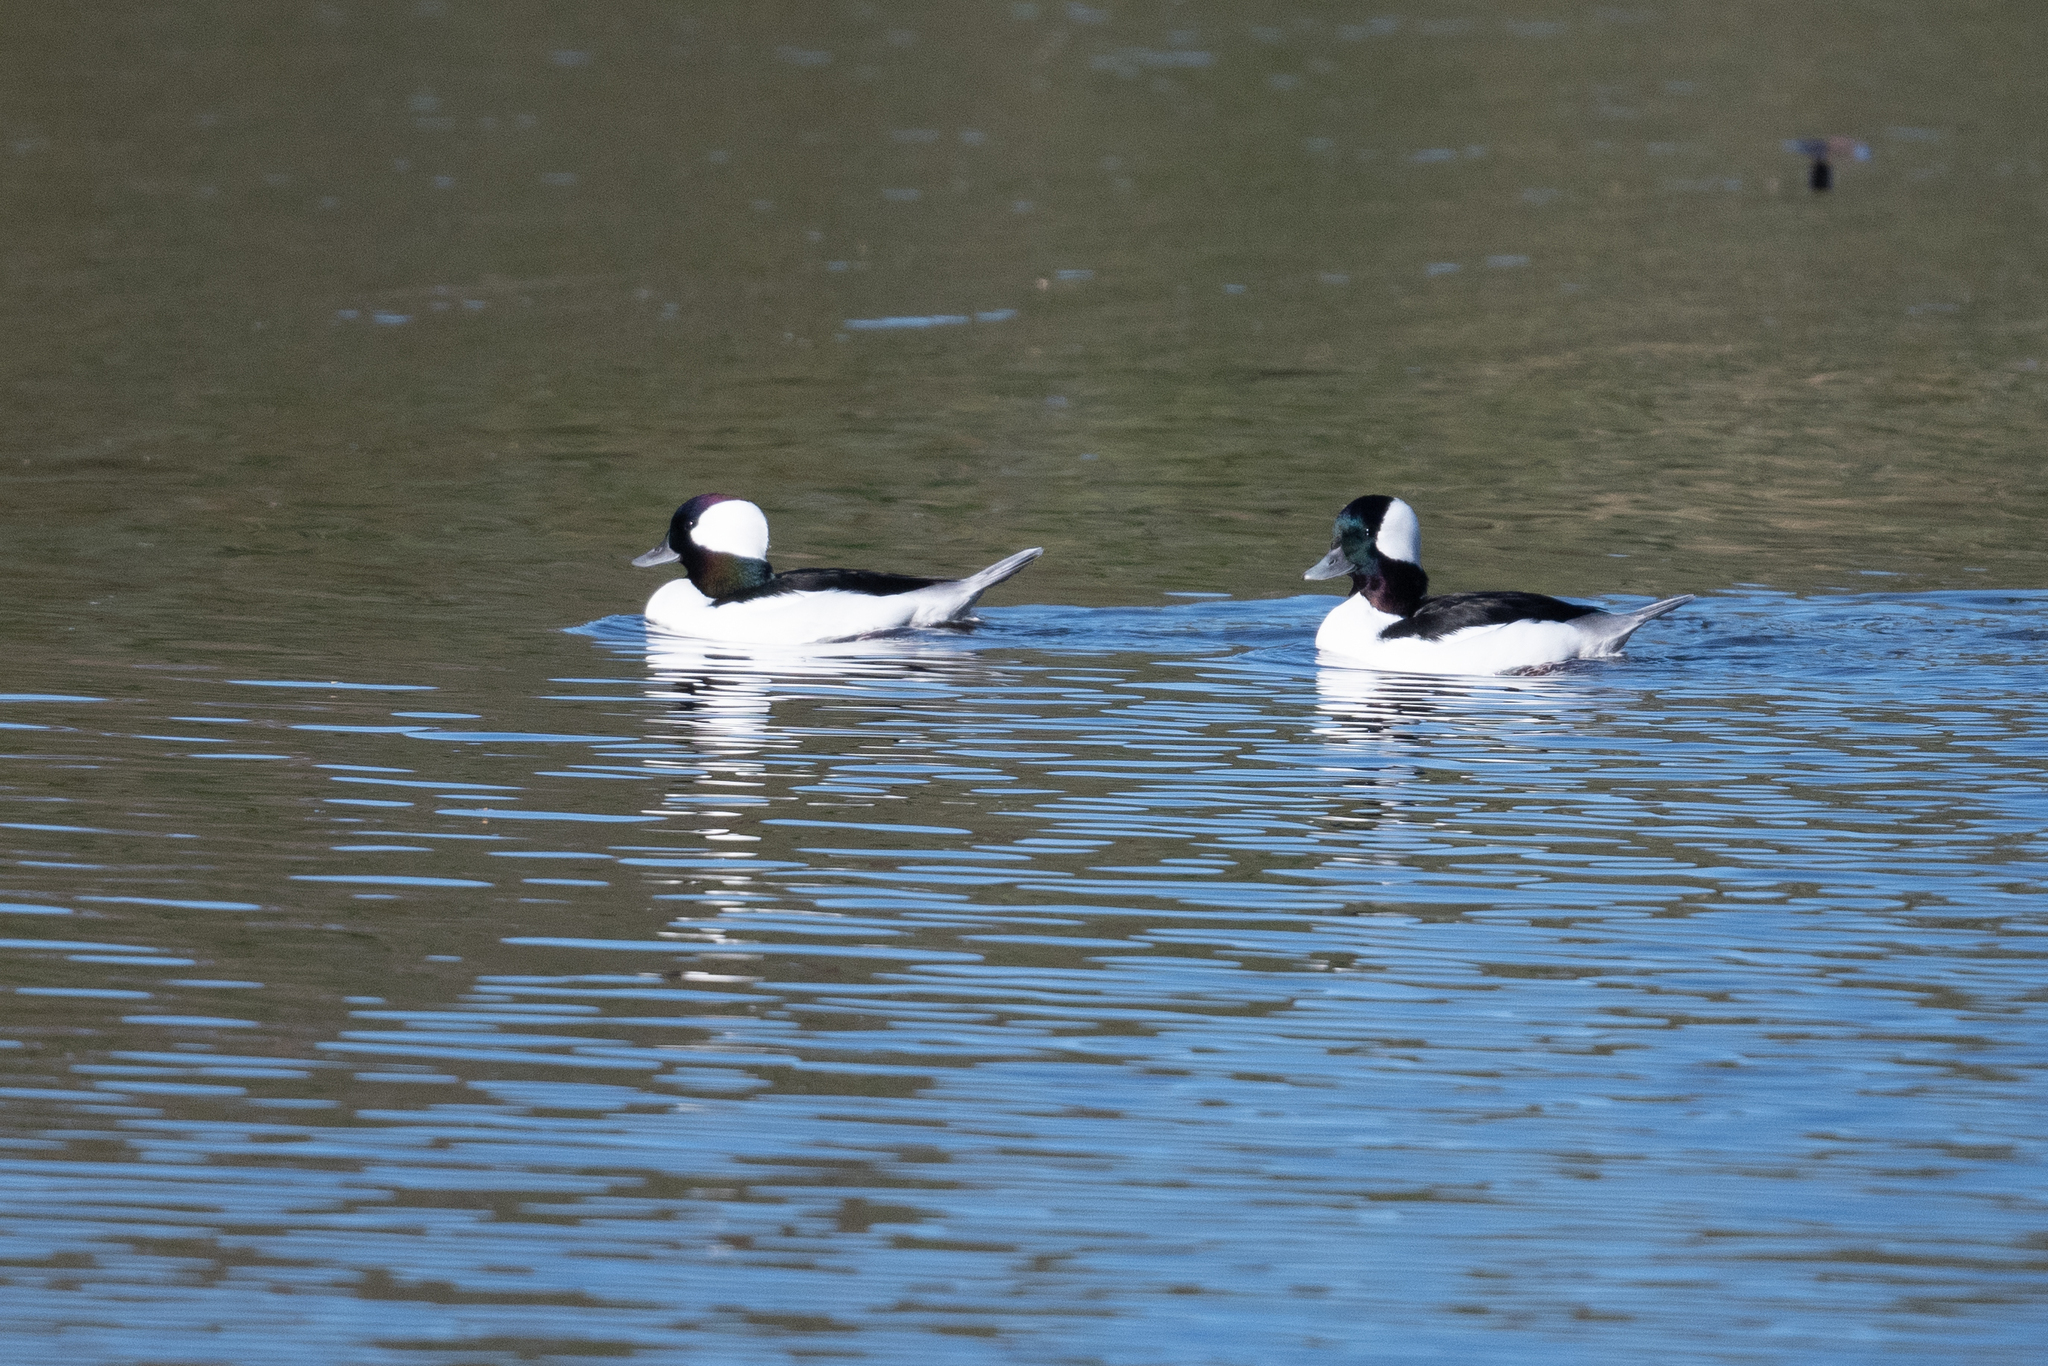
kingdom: Animalia
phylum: Chordata
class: Aves
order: Anseriformes
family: Anatidae
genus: Bucephala
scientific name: Bucephala albeola
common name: Bufflehead
